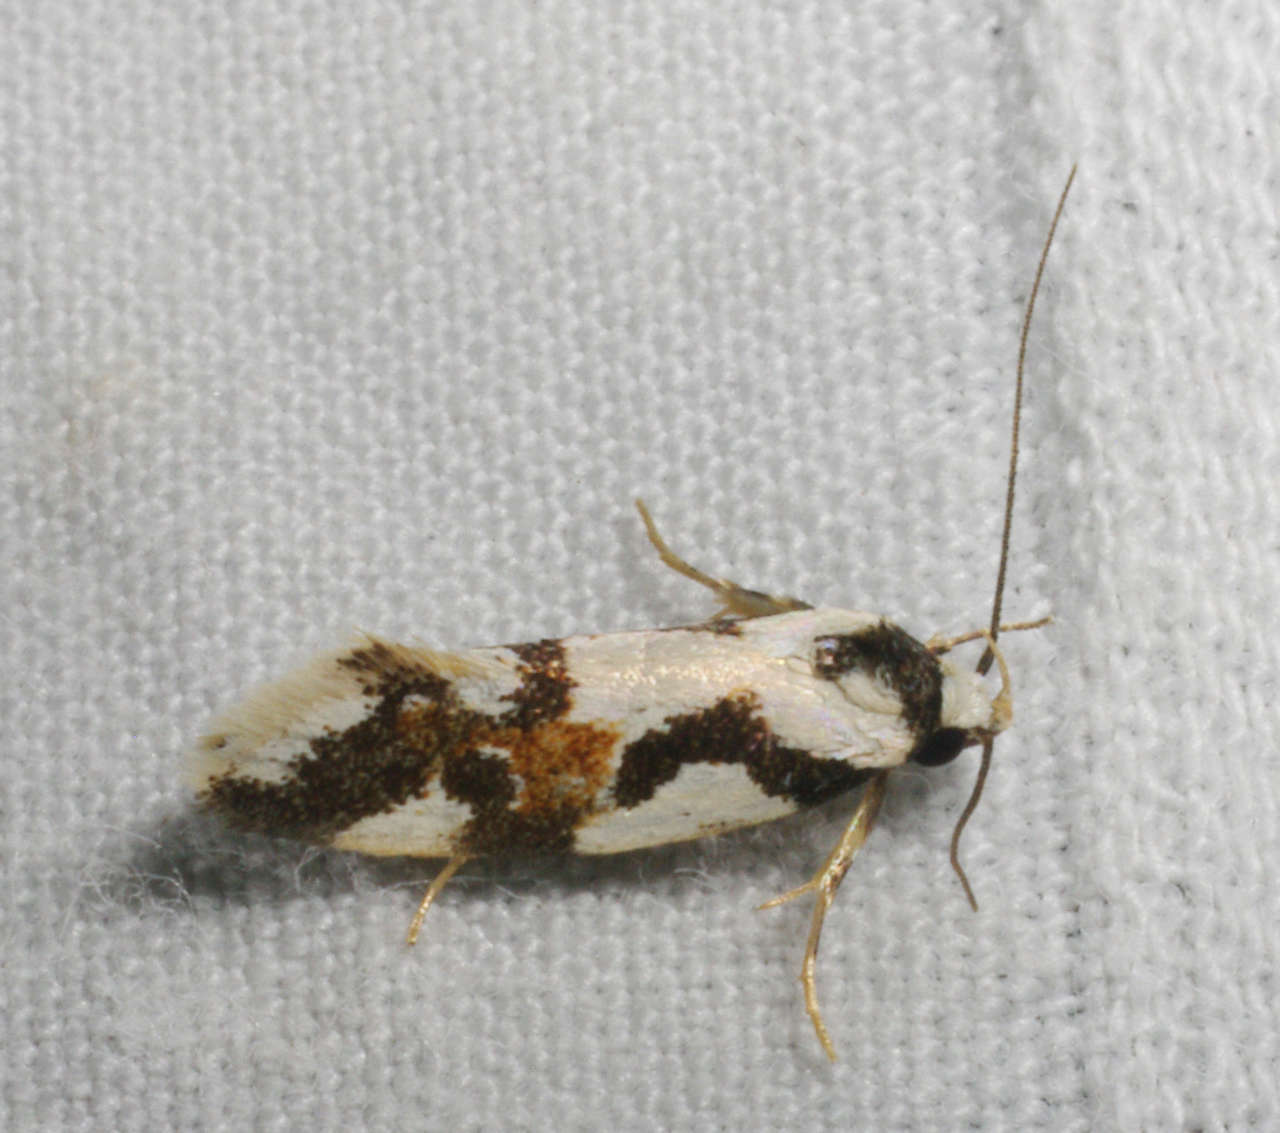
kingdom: Animalia
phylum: Arthropoda
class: Insecta
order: Lepidoptera
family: Oecophoridae
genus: Machetis
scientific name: Machetis
